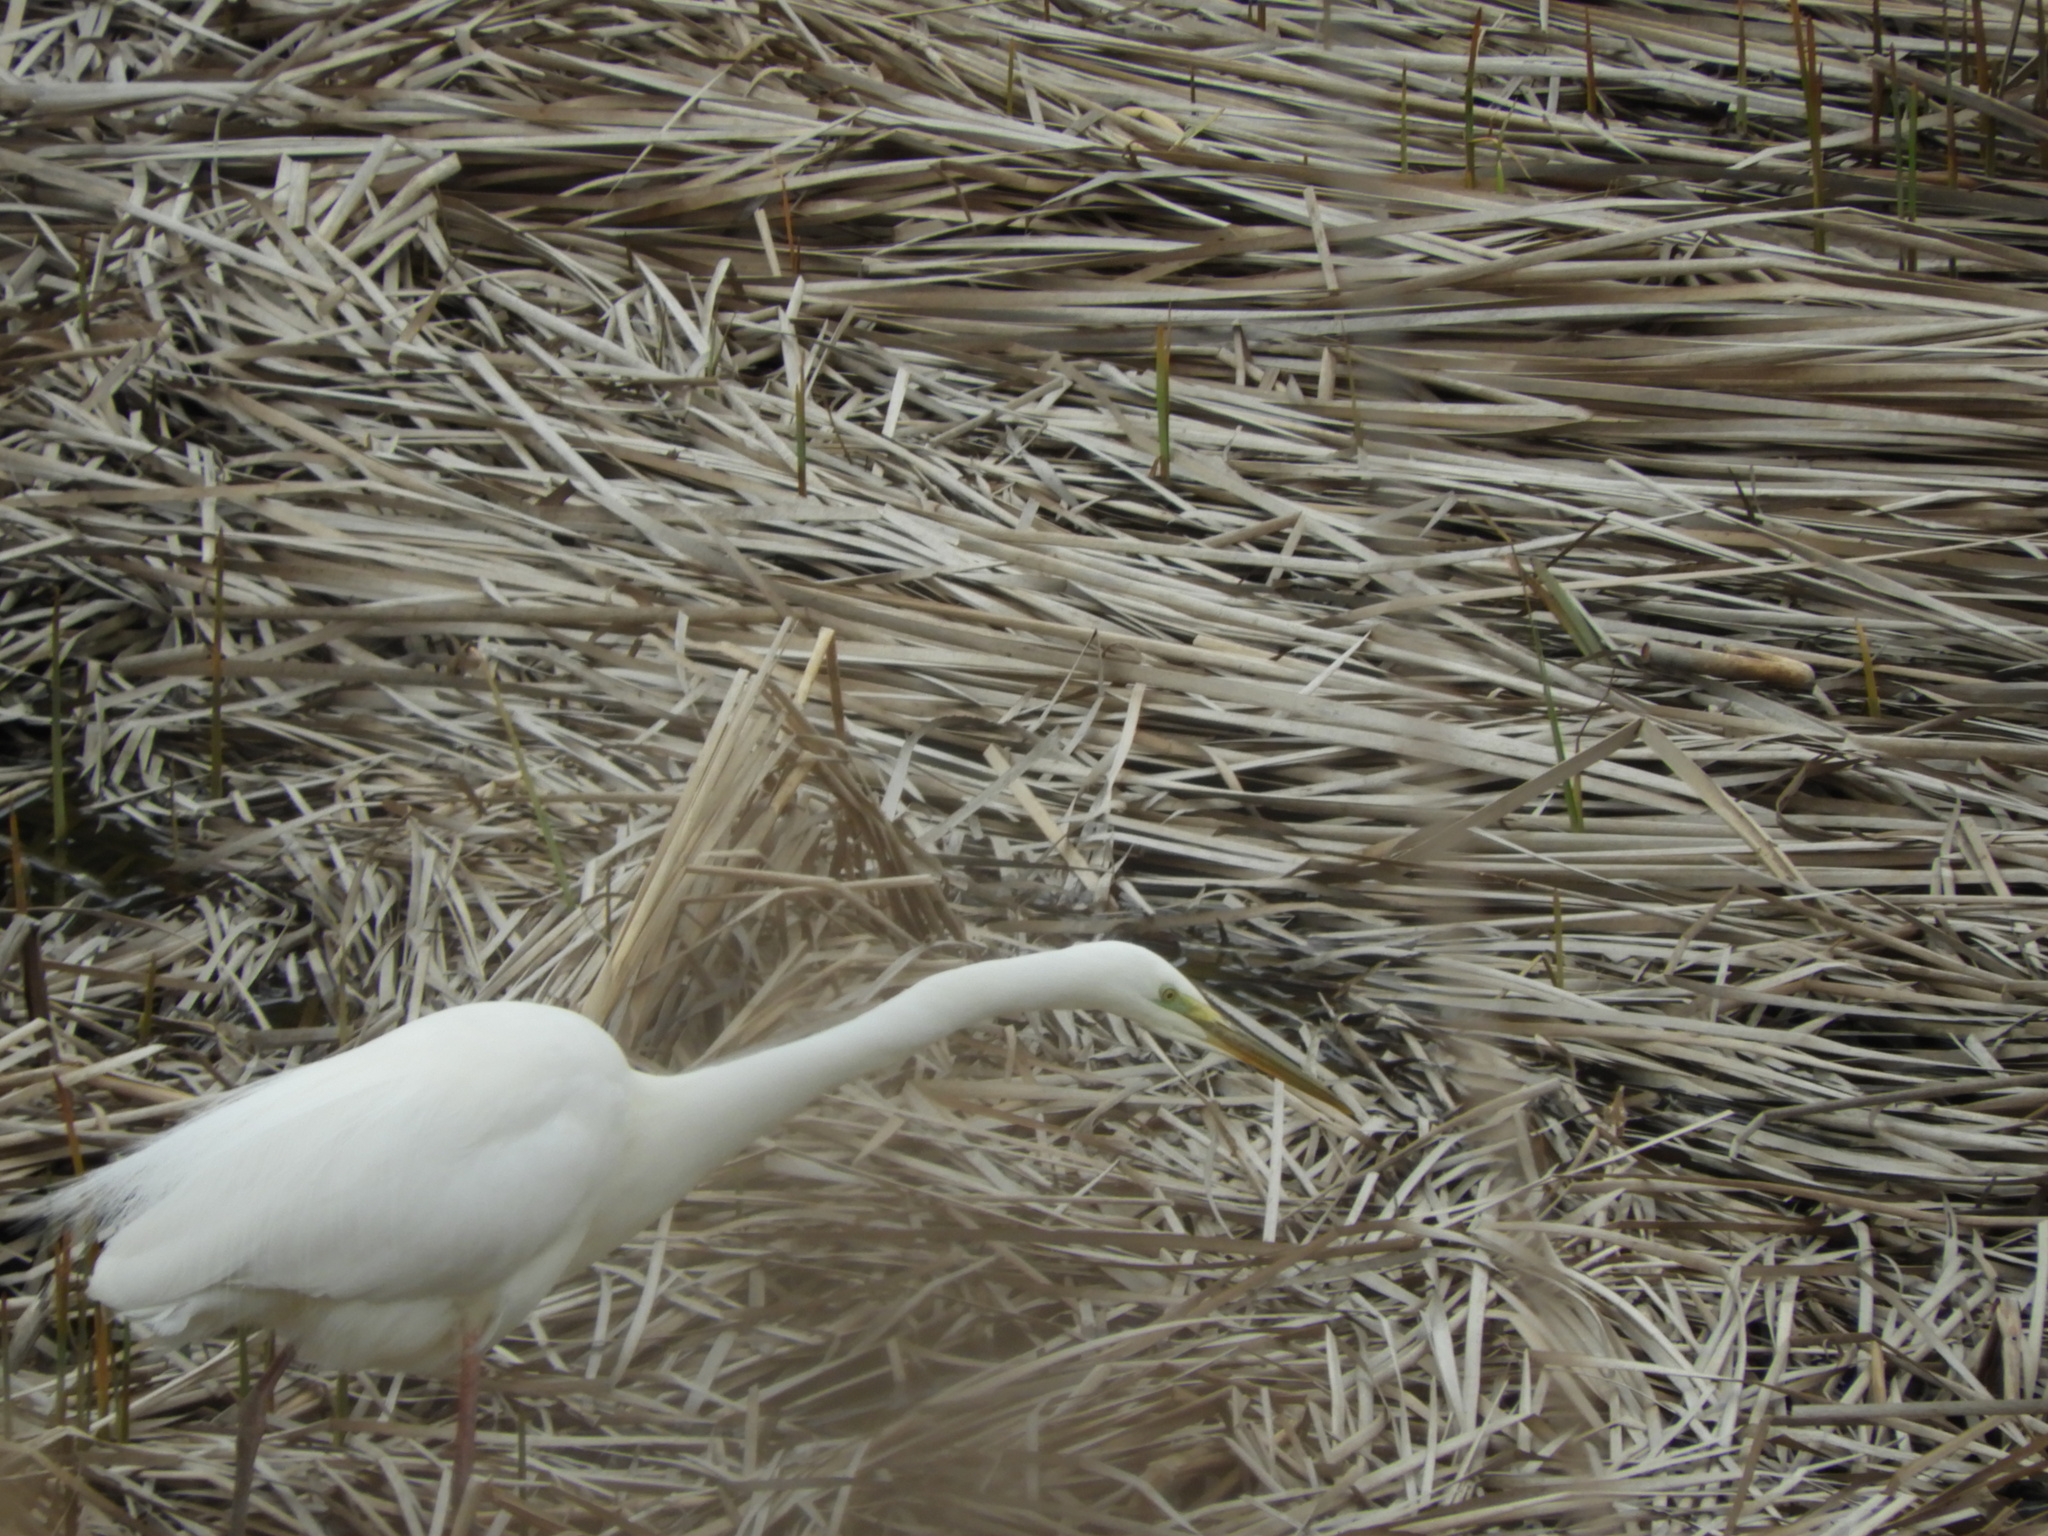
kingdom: Animalia
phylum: Chordata
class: Aves
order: Pelecaniformes
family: Ardeidae
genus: Ardea
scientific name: Ardea alba
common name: Great egret
